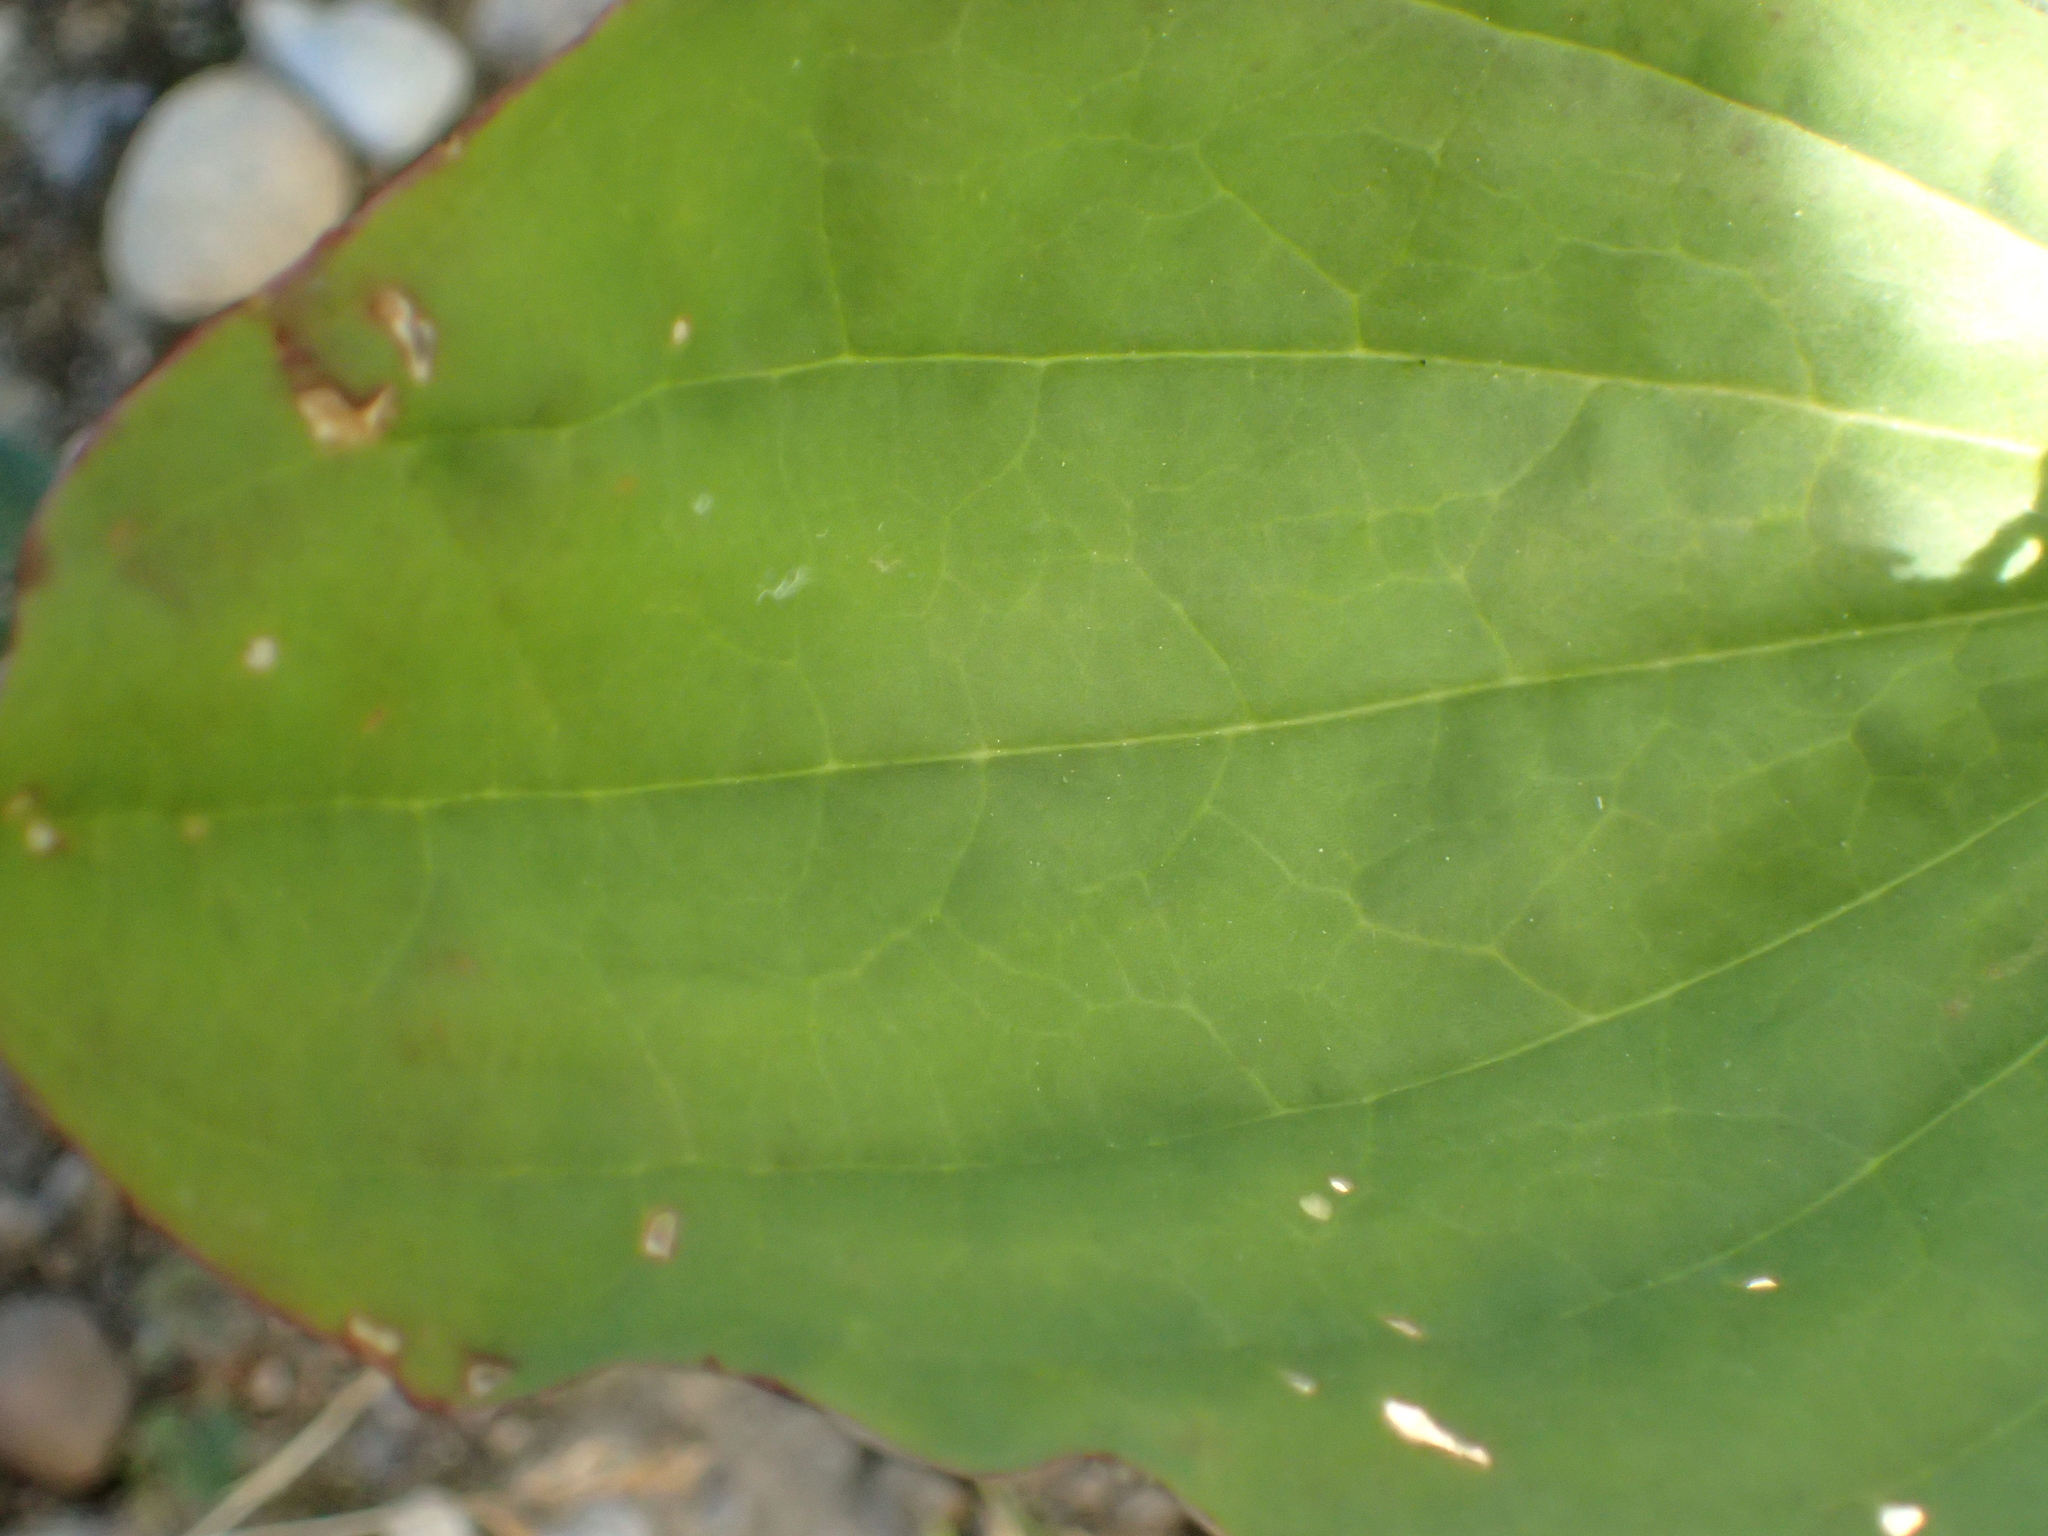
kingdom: Plantae
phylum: Tracheophyta
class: Magnoliopsida
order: Lamiales
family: Plantaginaceae
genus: Plantago
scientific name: Plantago major
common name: Common plantain
